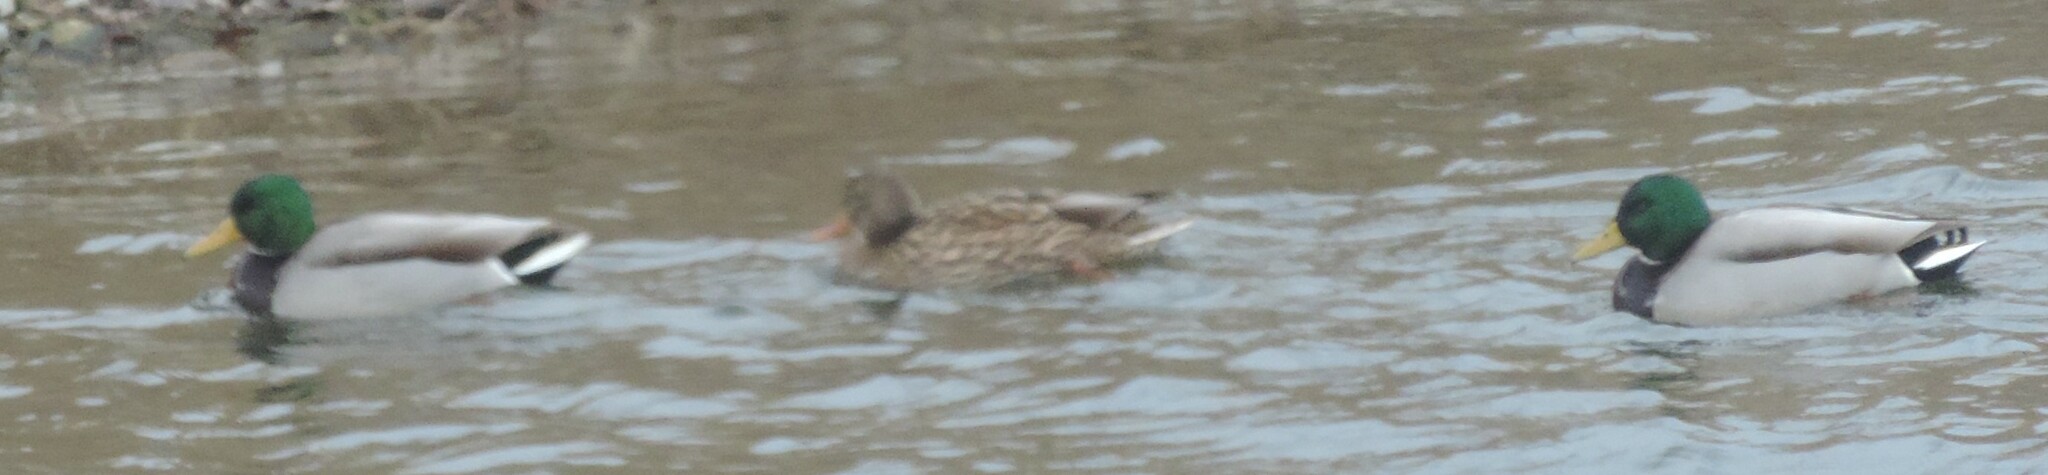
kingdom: Animalia
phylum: Chordata
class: Aves
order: Anseriformes
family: Anatidae
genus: Anas
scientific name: Anas platyrhynchos
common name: Mallard
